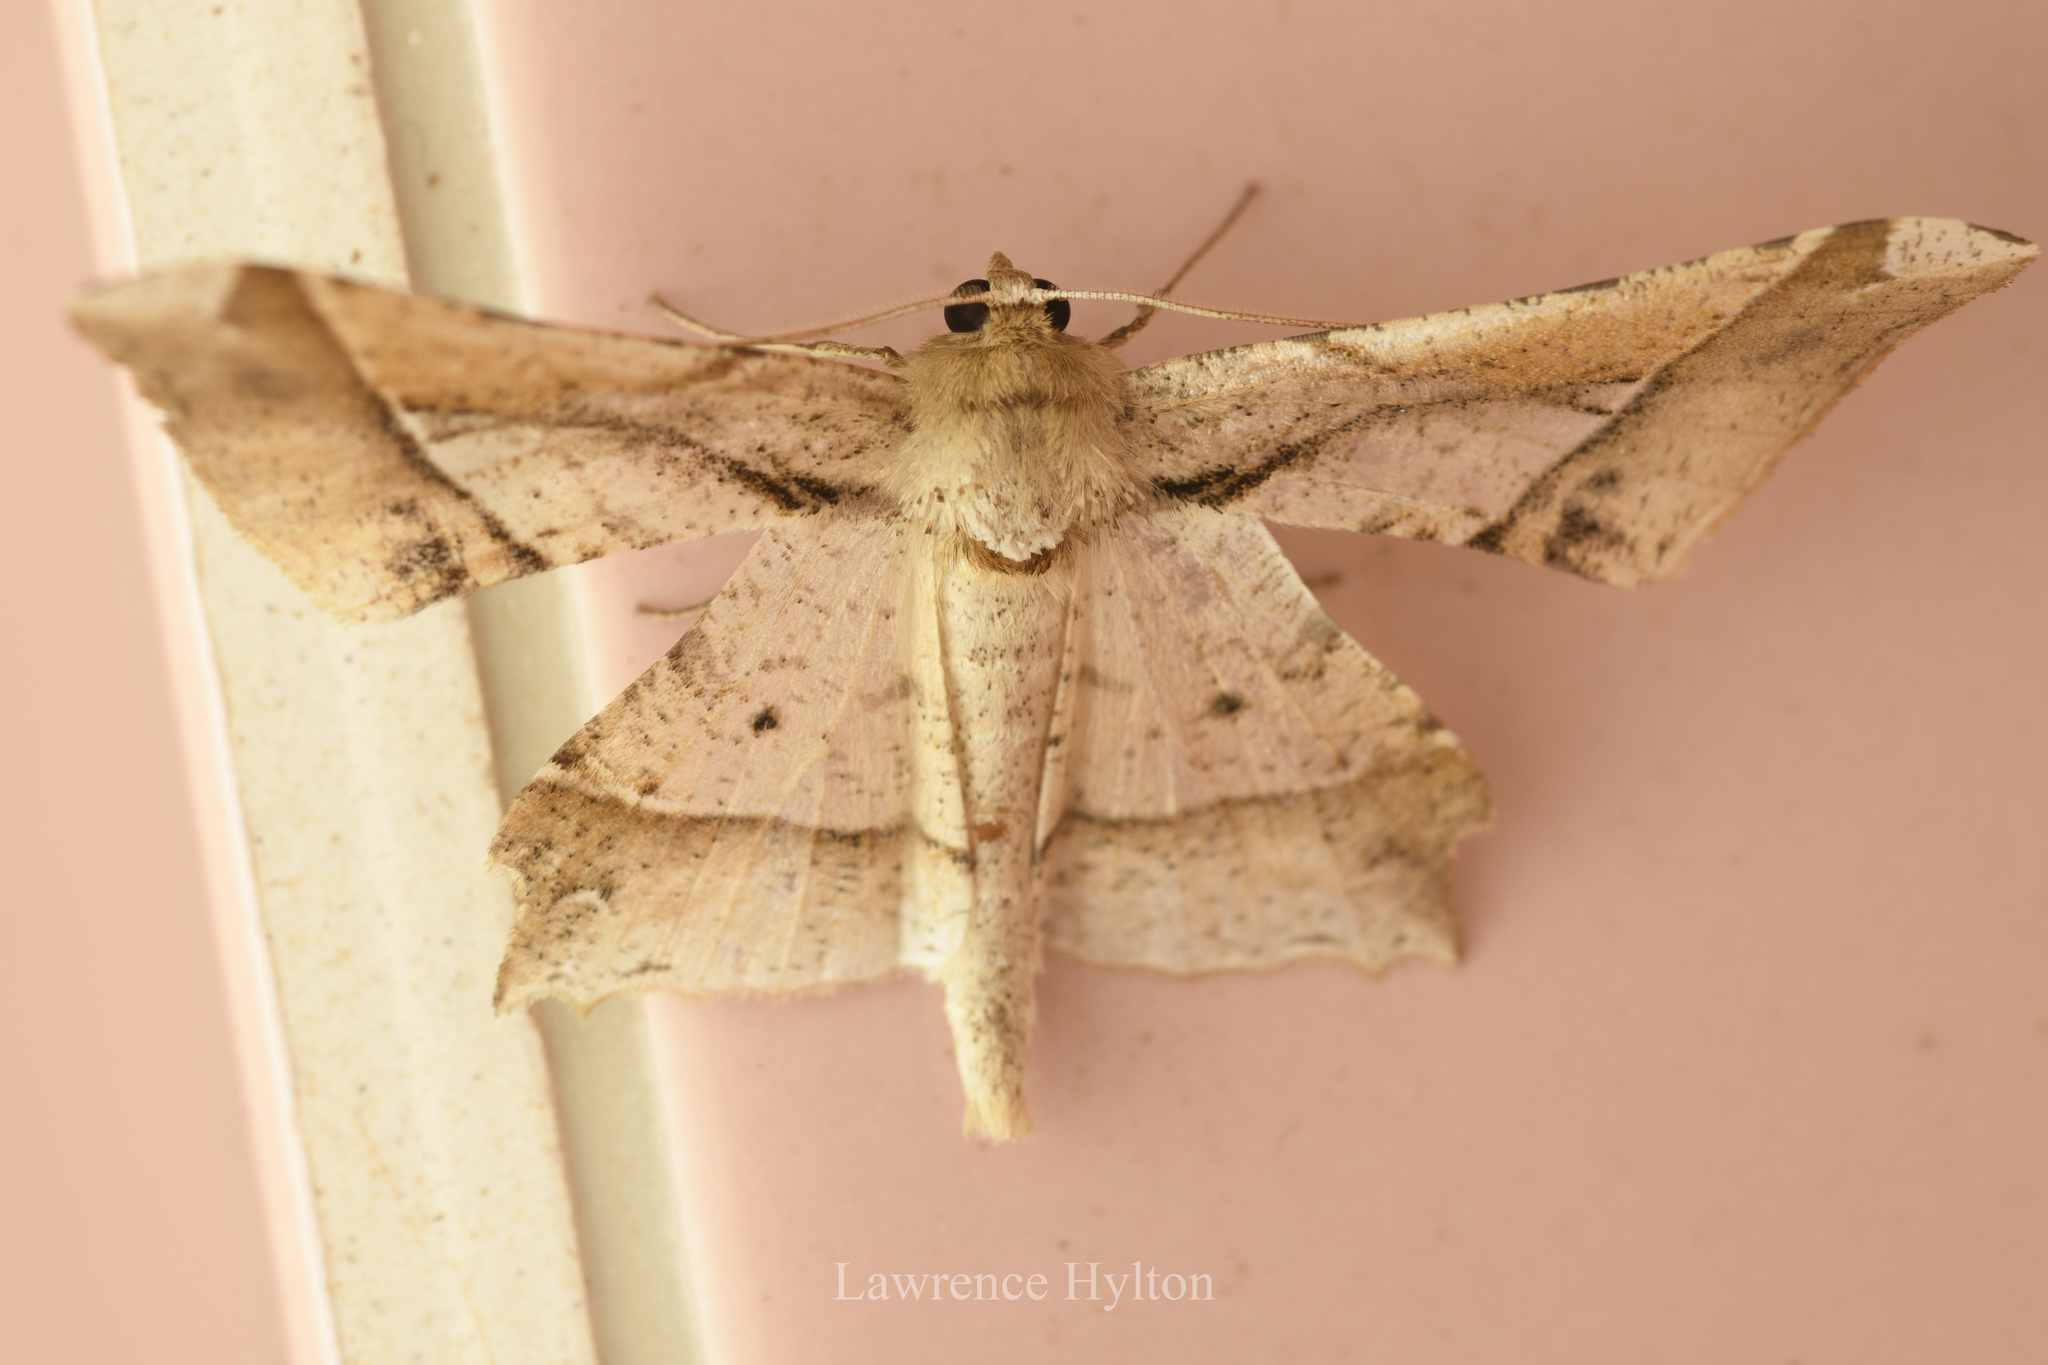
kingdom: Animalia
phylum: Arthropoda
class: Insecta
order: Lepidoptera
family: Geometridae
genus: Krananda
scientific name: Krananda latimarginaria
